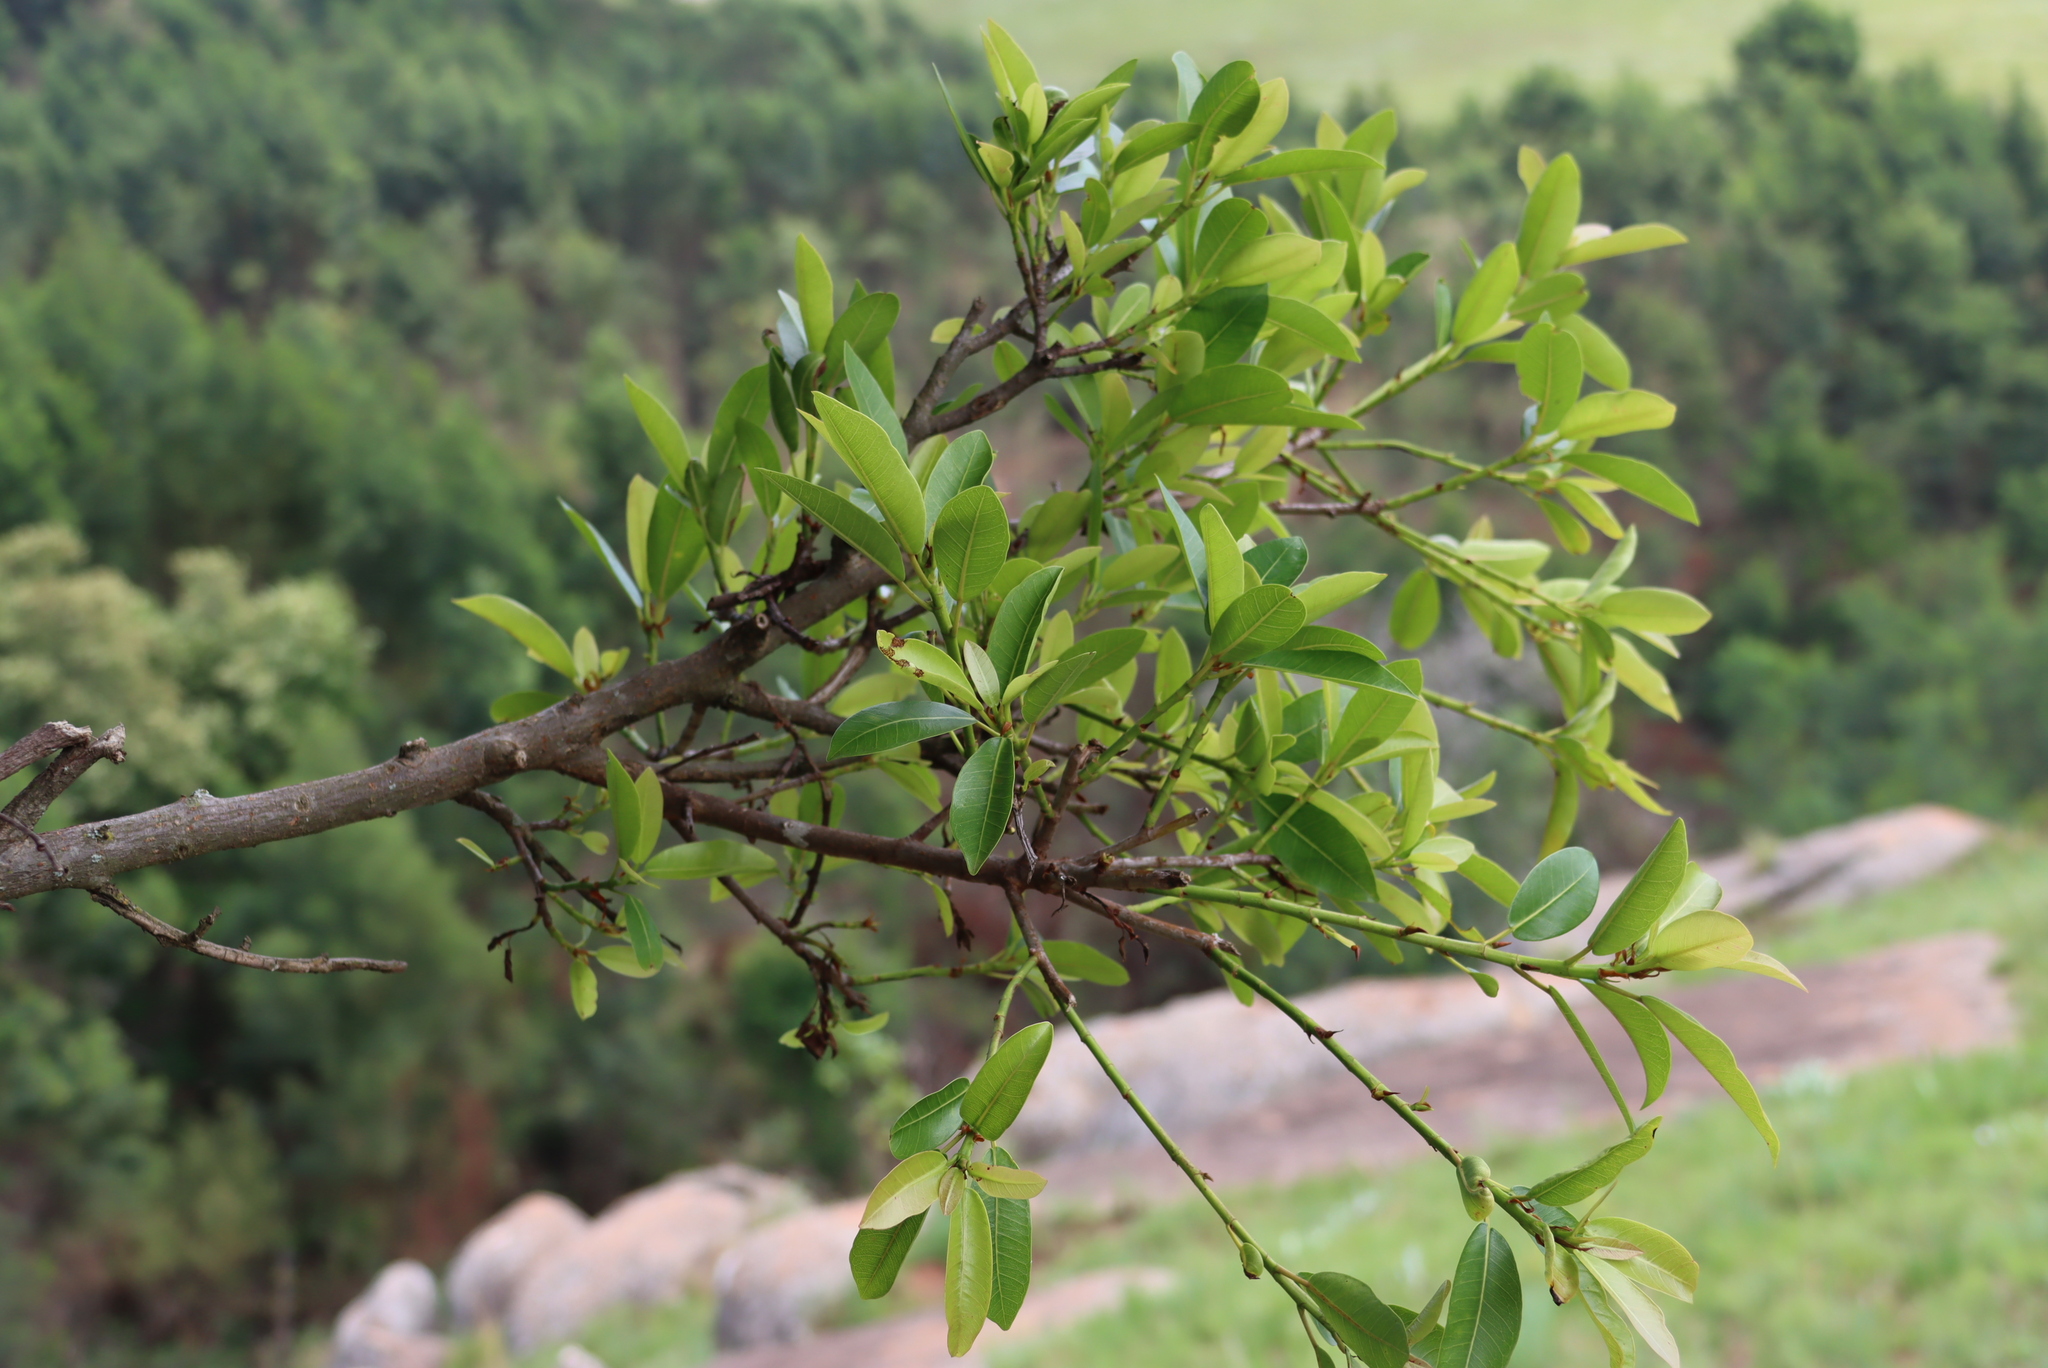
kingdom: Plantae
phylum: Tracheophyta
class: Magnoliopsida
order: Rosales
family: Moraceae
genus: Ficus
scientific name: Ficus thonningii
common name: Fig
